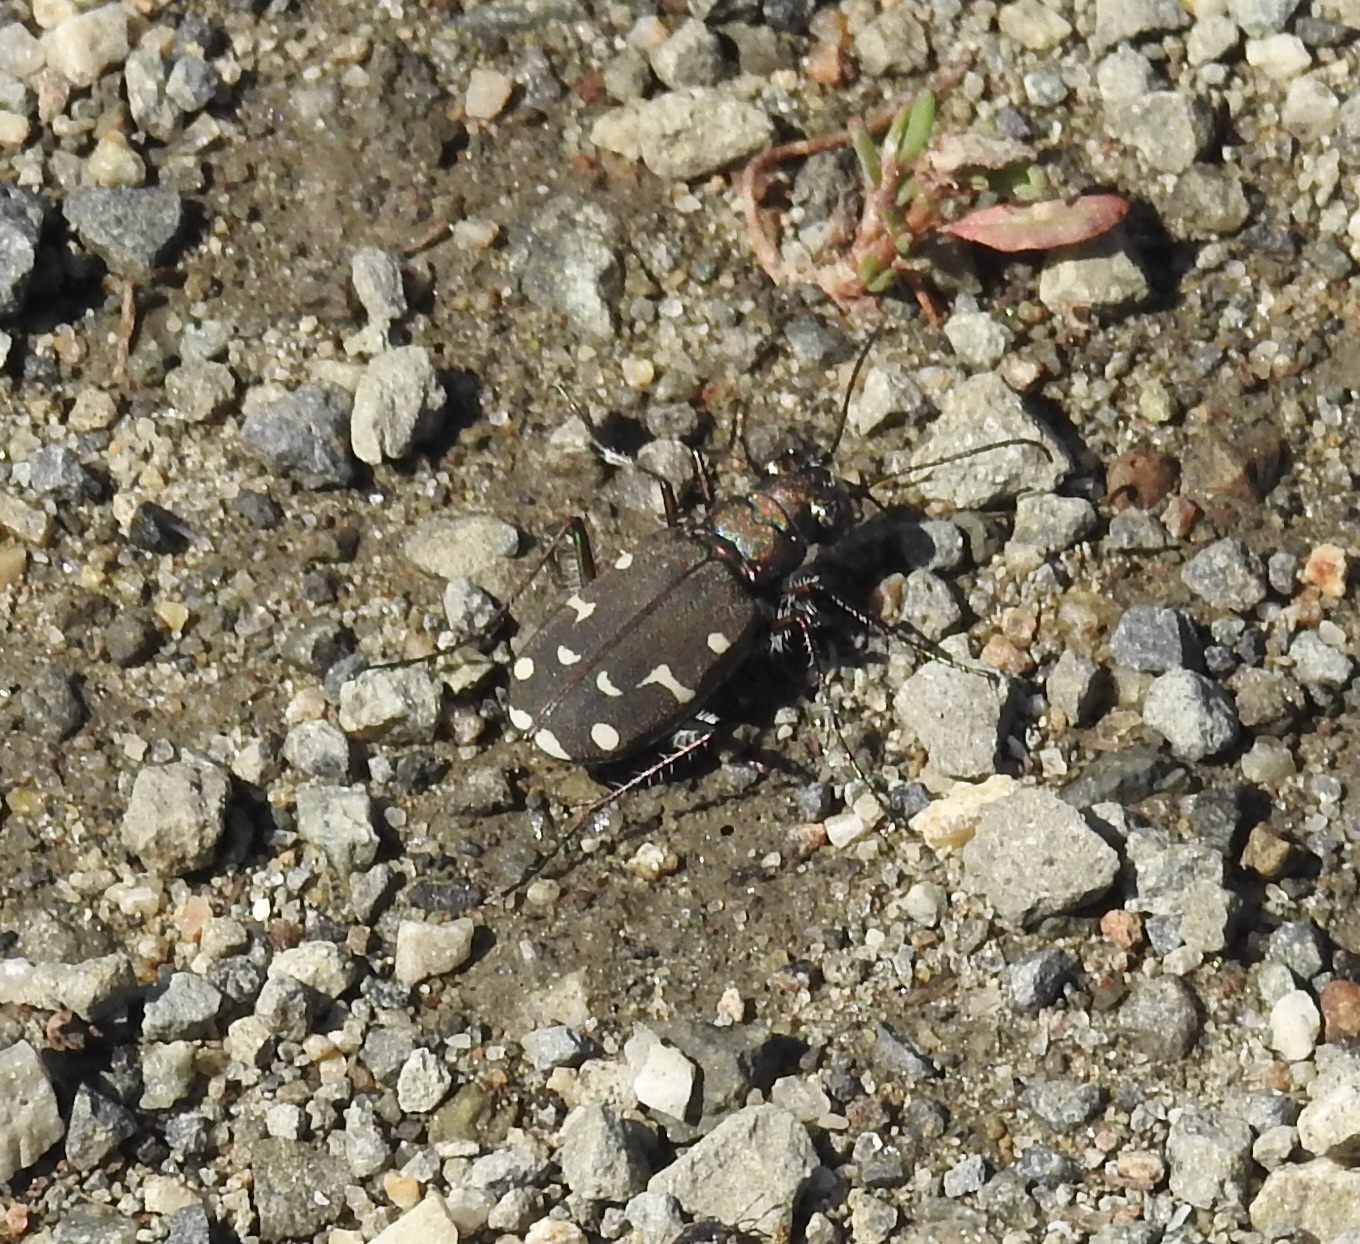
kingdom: Animalia
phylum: Arthropoda
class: Insecta
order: Coleoptera
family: Carabidae
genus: Cicindela
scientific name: Cicindela oregona
